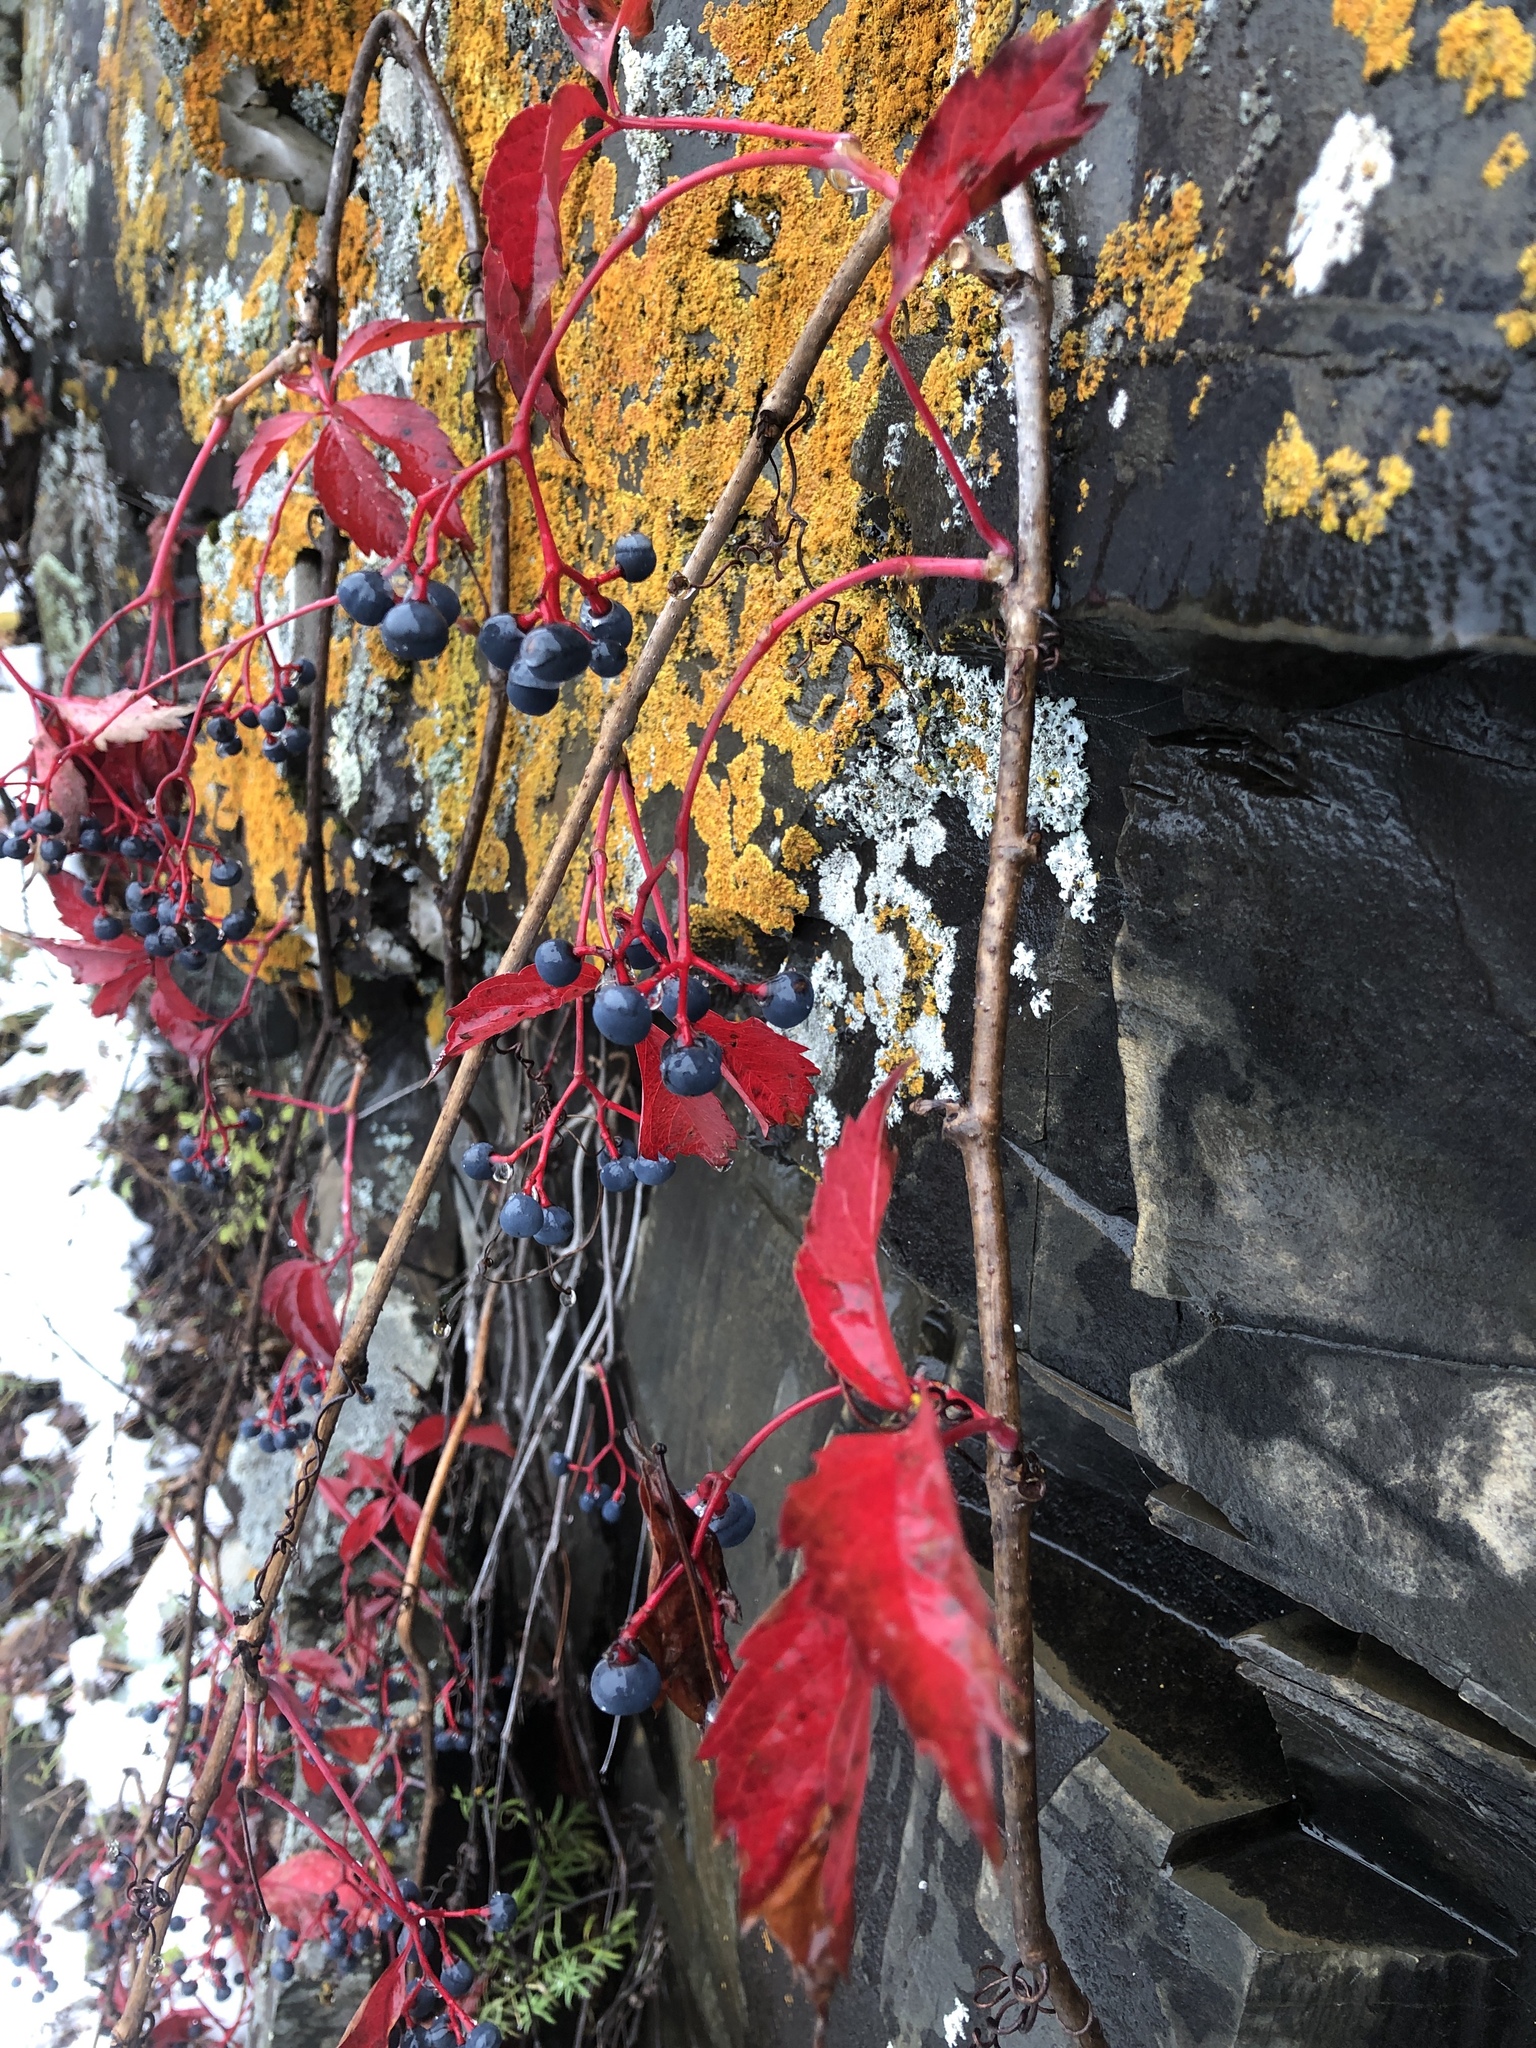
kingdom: Plantae
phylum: Tracheophyta
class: Magnoliopsida
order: Vitales
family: Vitaceae
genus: Parthenocissus
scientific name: Parthenocissus quinquefolia
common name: Virginia-creeper
